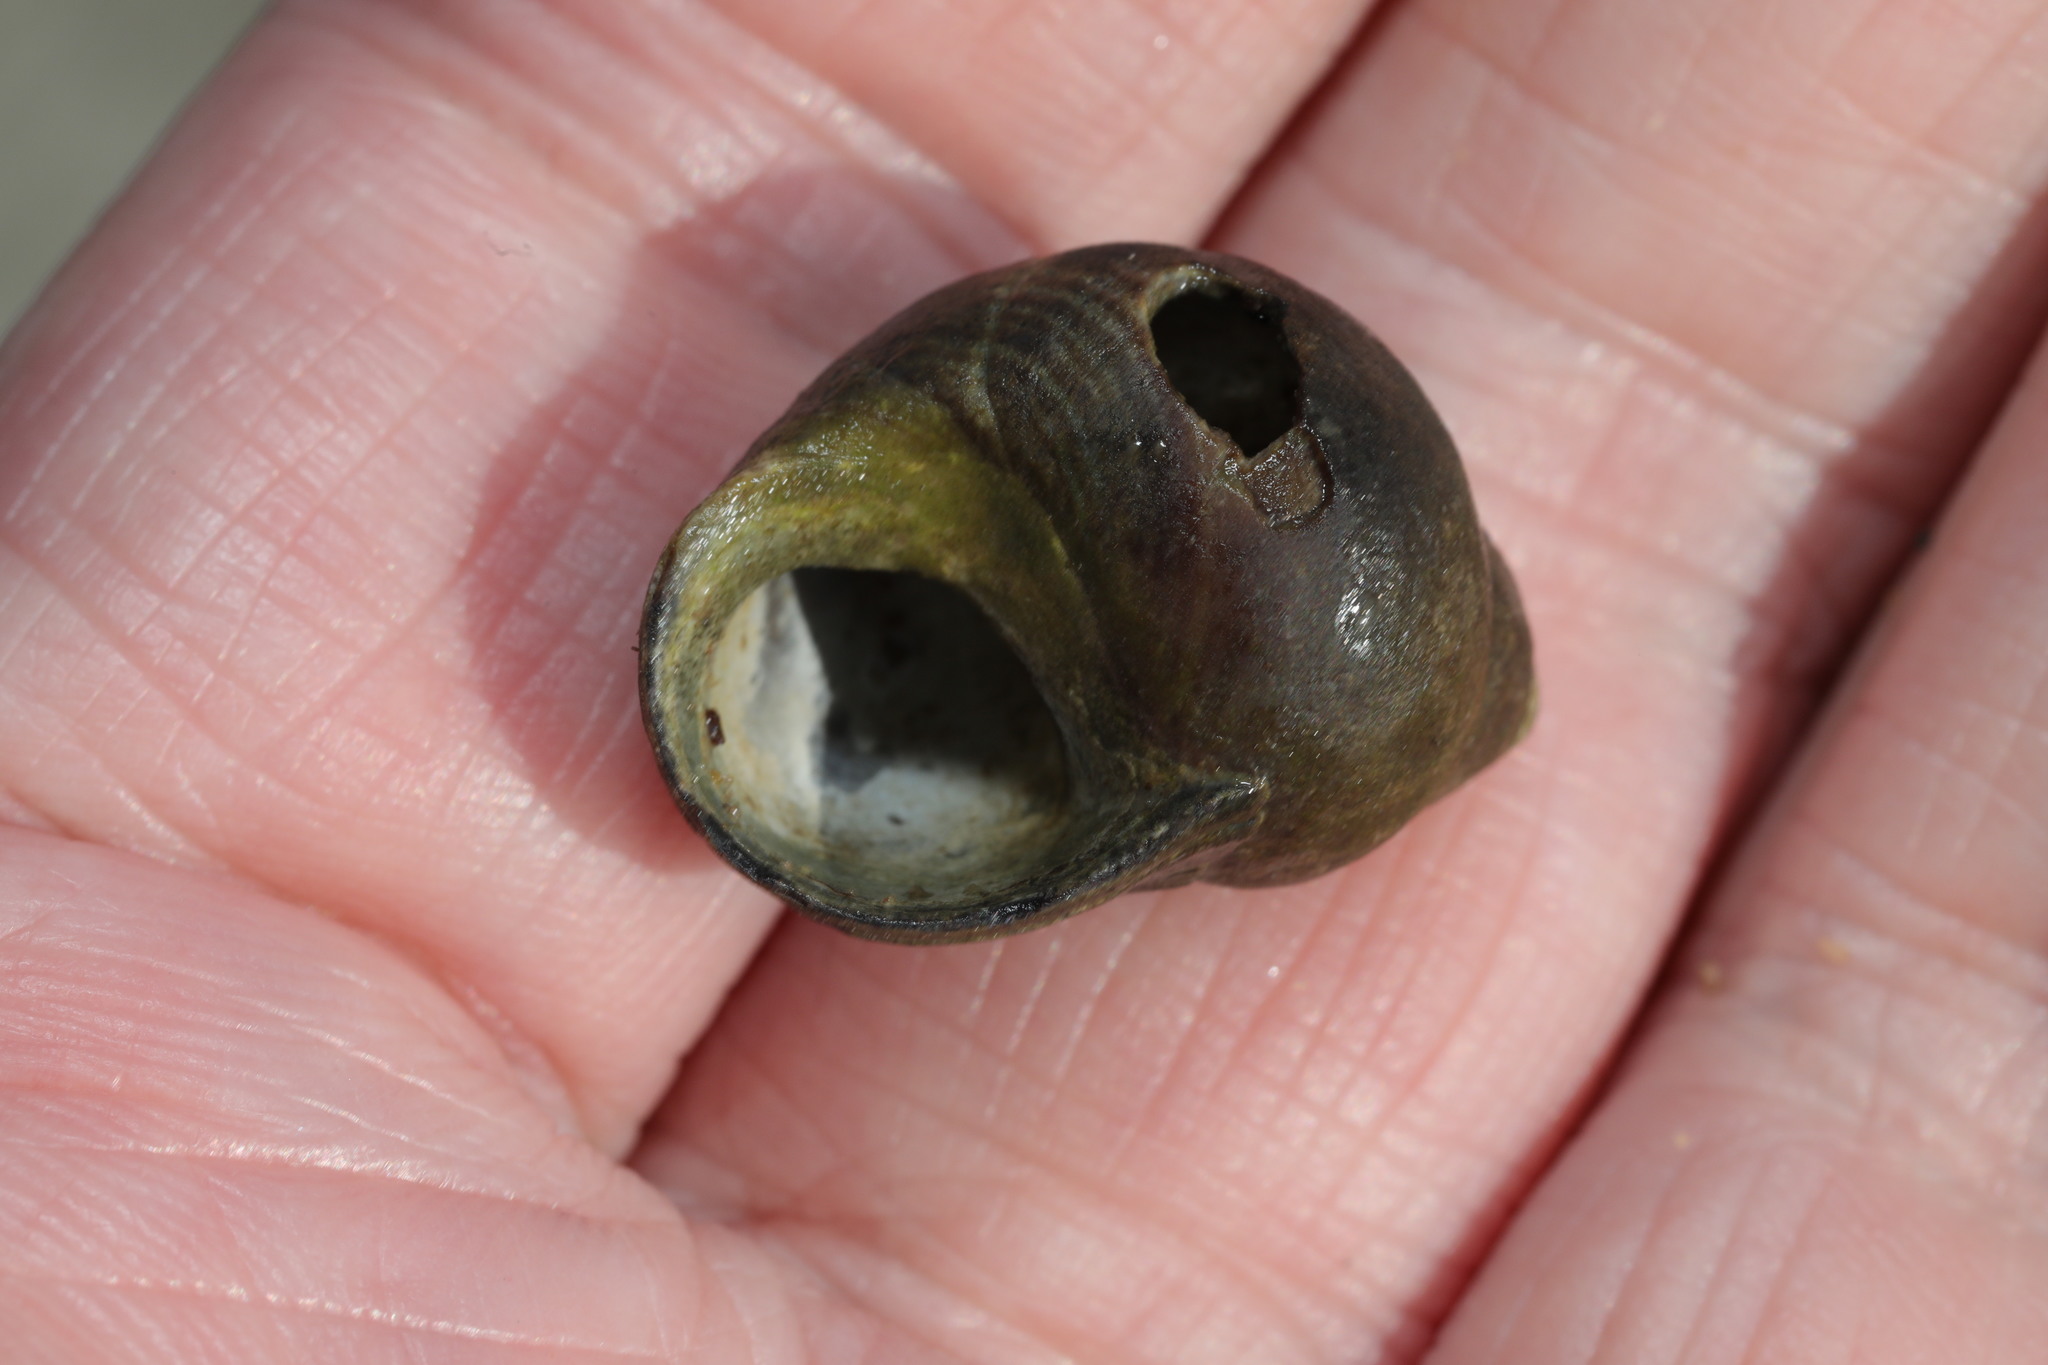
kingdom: Animalia
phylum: Mollusca
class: Gastropoda
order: Littorinimorpha
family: Littorinidae
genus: Littorina
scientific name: Littorina littorea
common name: Common periwinkle
